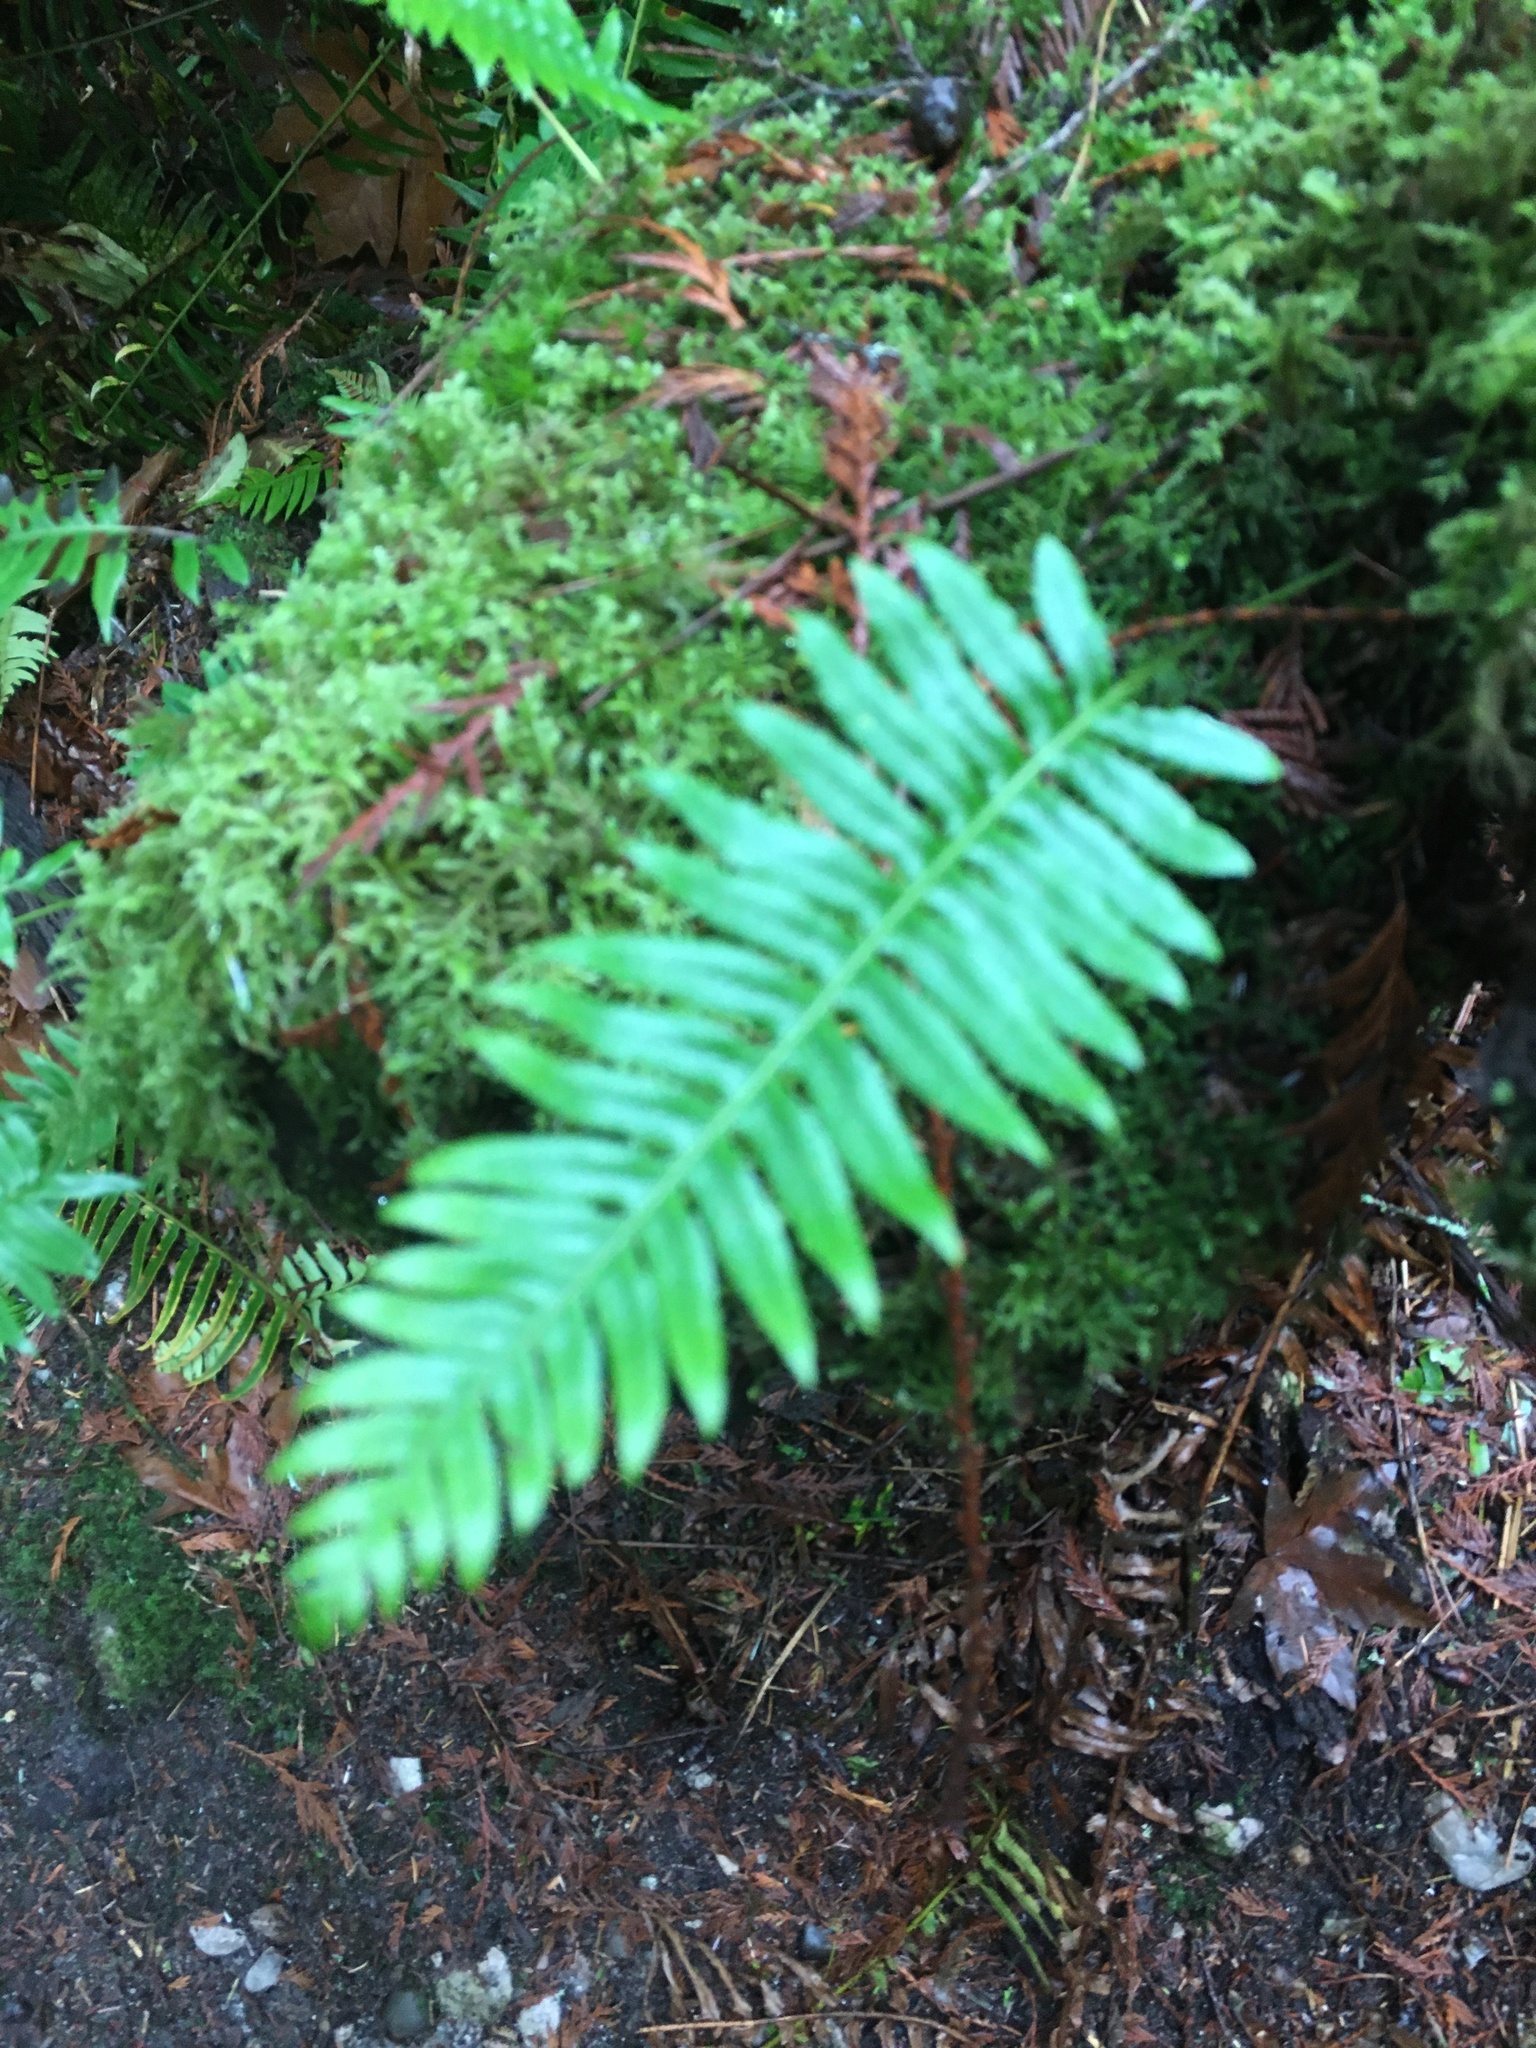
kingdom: Plantae
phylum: Tracheophyta
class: Polypodiopsida
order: Polypodiales
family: Polypodiaceae
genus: Polypodium
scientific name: Polypodium glycyrrhiza
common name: Licorice fern
